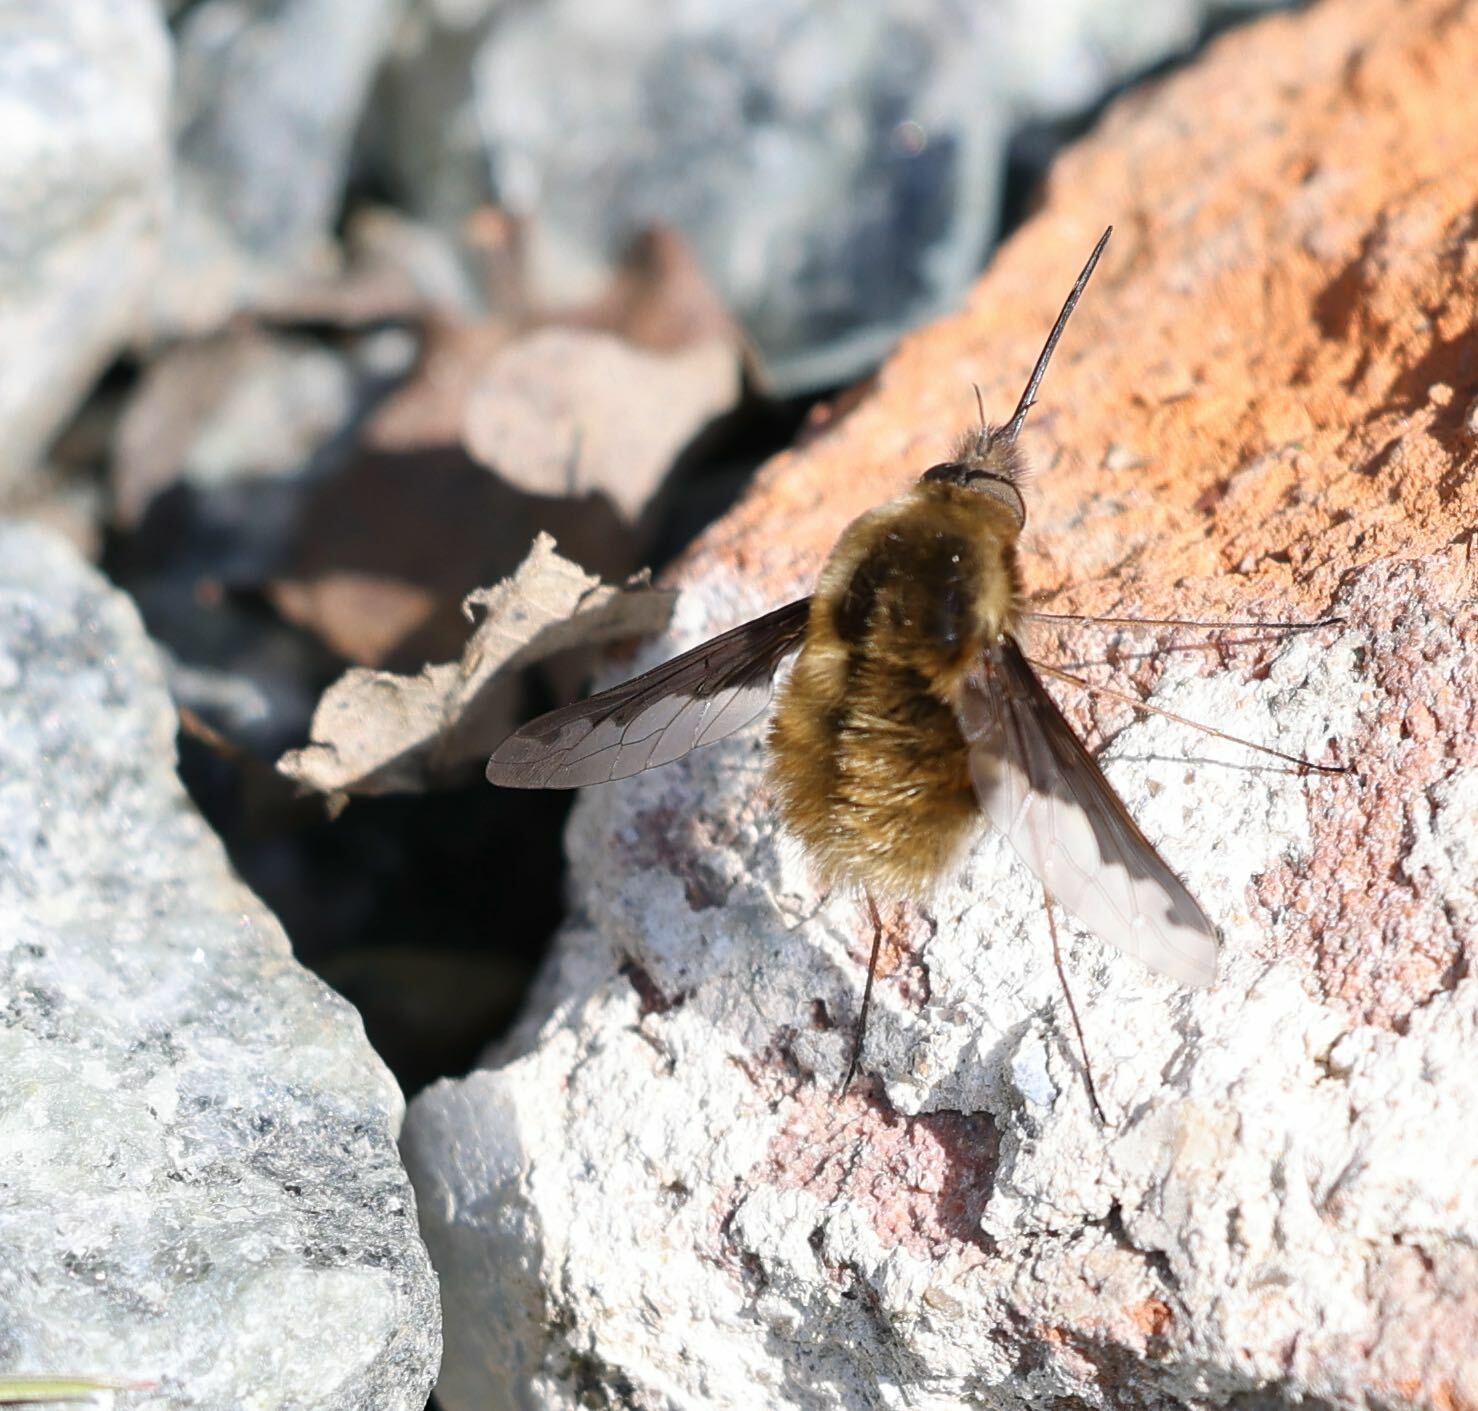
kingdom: Animalia
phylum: Arthropoda
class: Insecta
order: Diptera
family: Bombyliidae
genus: Bombylius
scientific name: Bombylius major
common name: Bee fly
